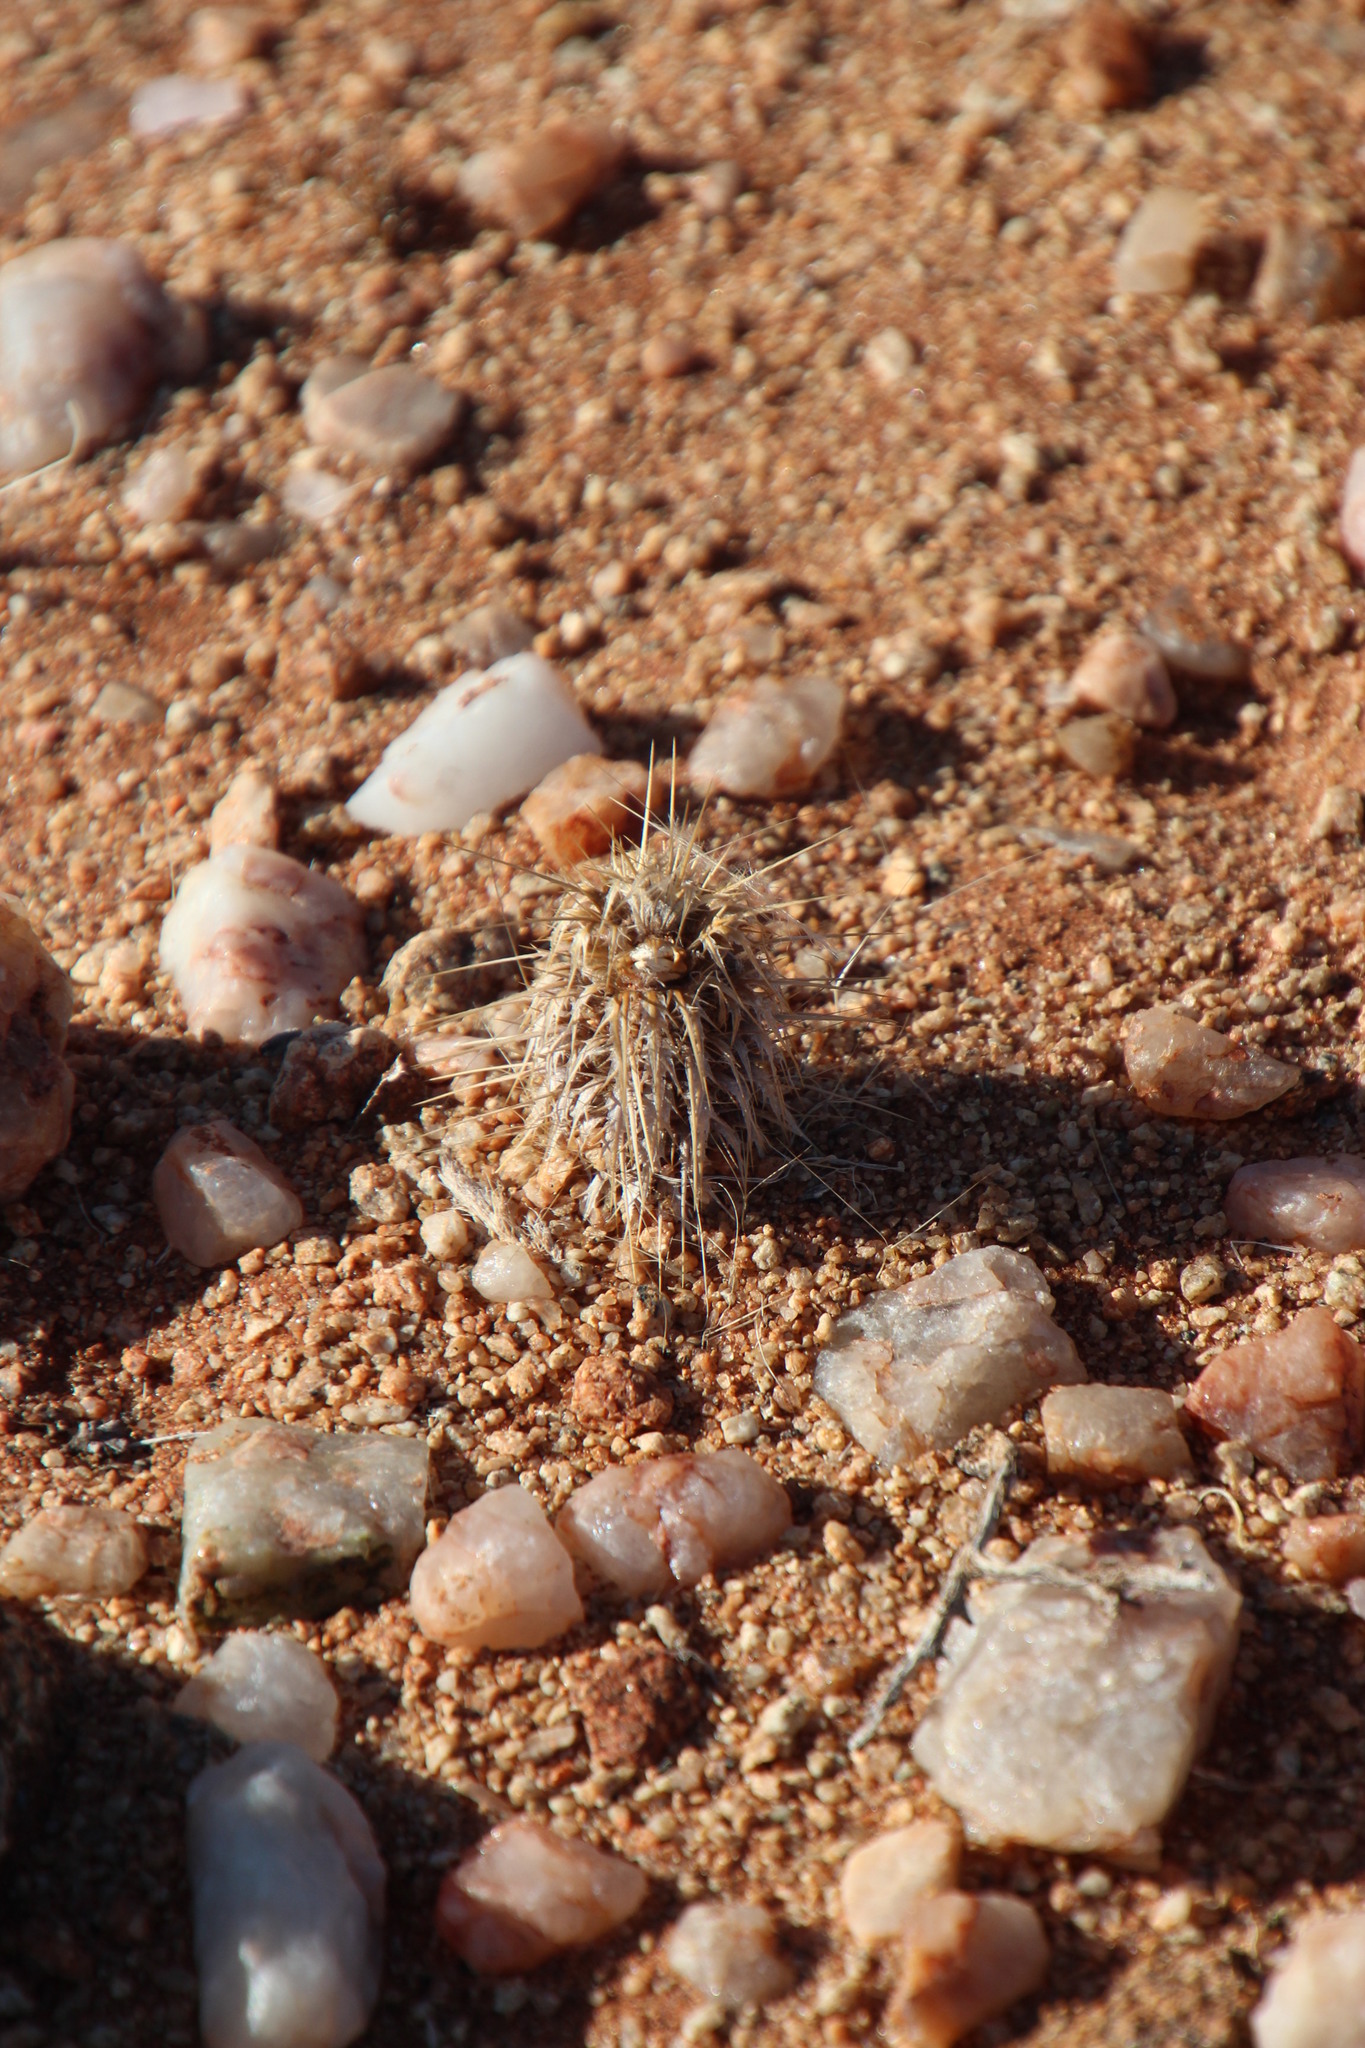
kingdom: Plantae
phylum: Tracheophyta
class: Magnoliopsida
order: Lamiales
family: Acanthaceae
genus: Acanthopsis
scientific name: Acanthopsis hoffmannseggiana
